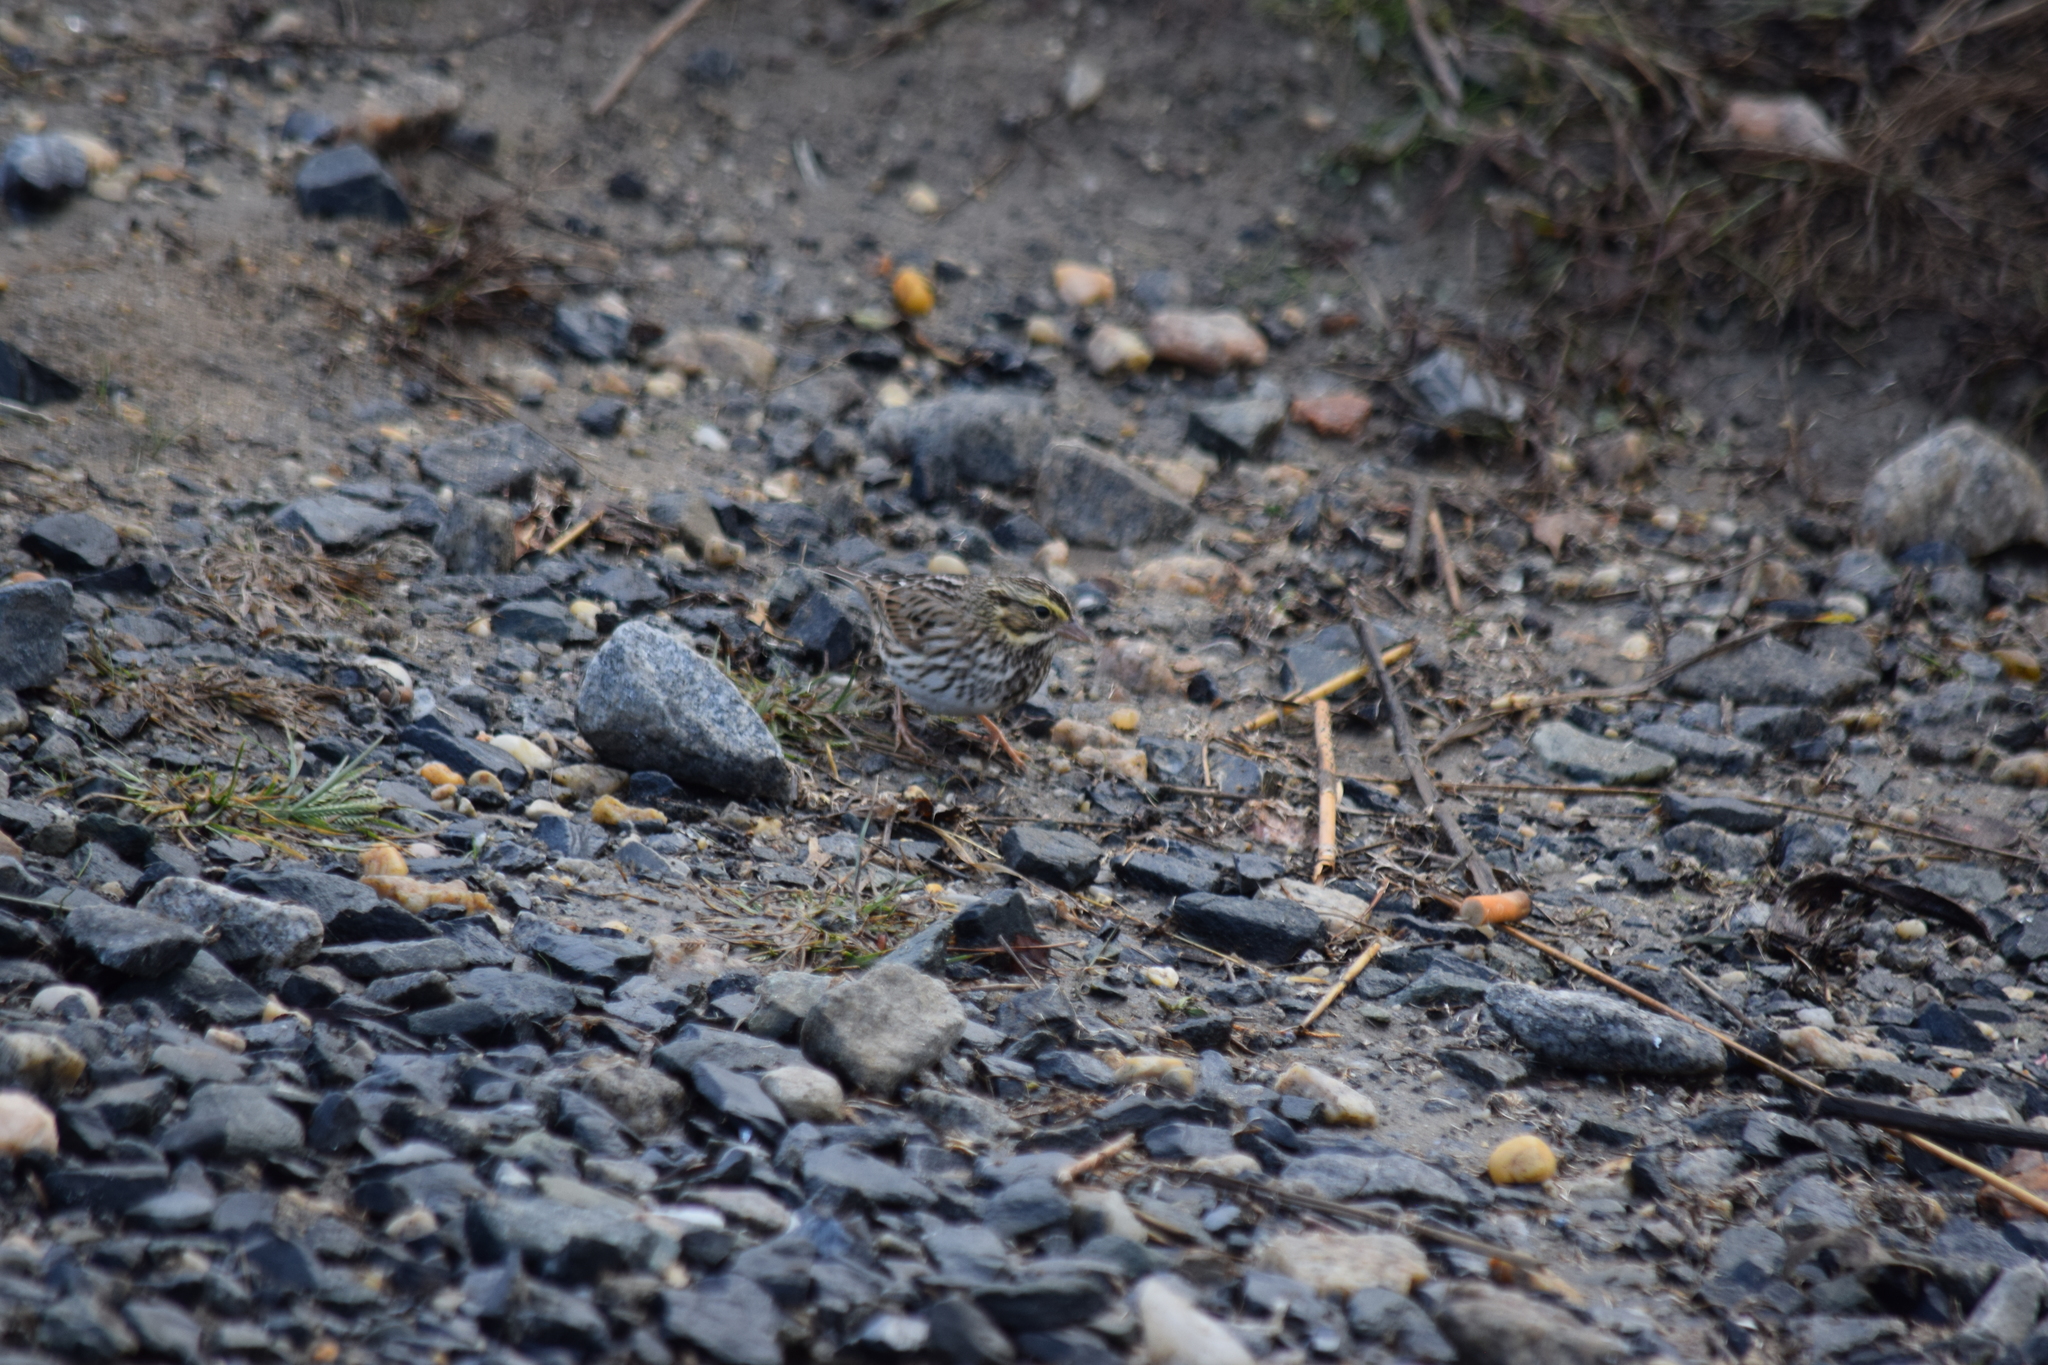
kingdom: Animalia
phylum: Chordata
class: Aves
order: Passeriformes
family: Passerellidae
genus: Passerculus
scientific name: Passerculus sandwichensis
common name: Savannah sparrow
